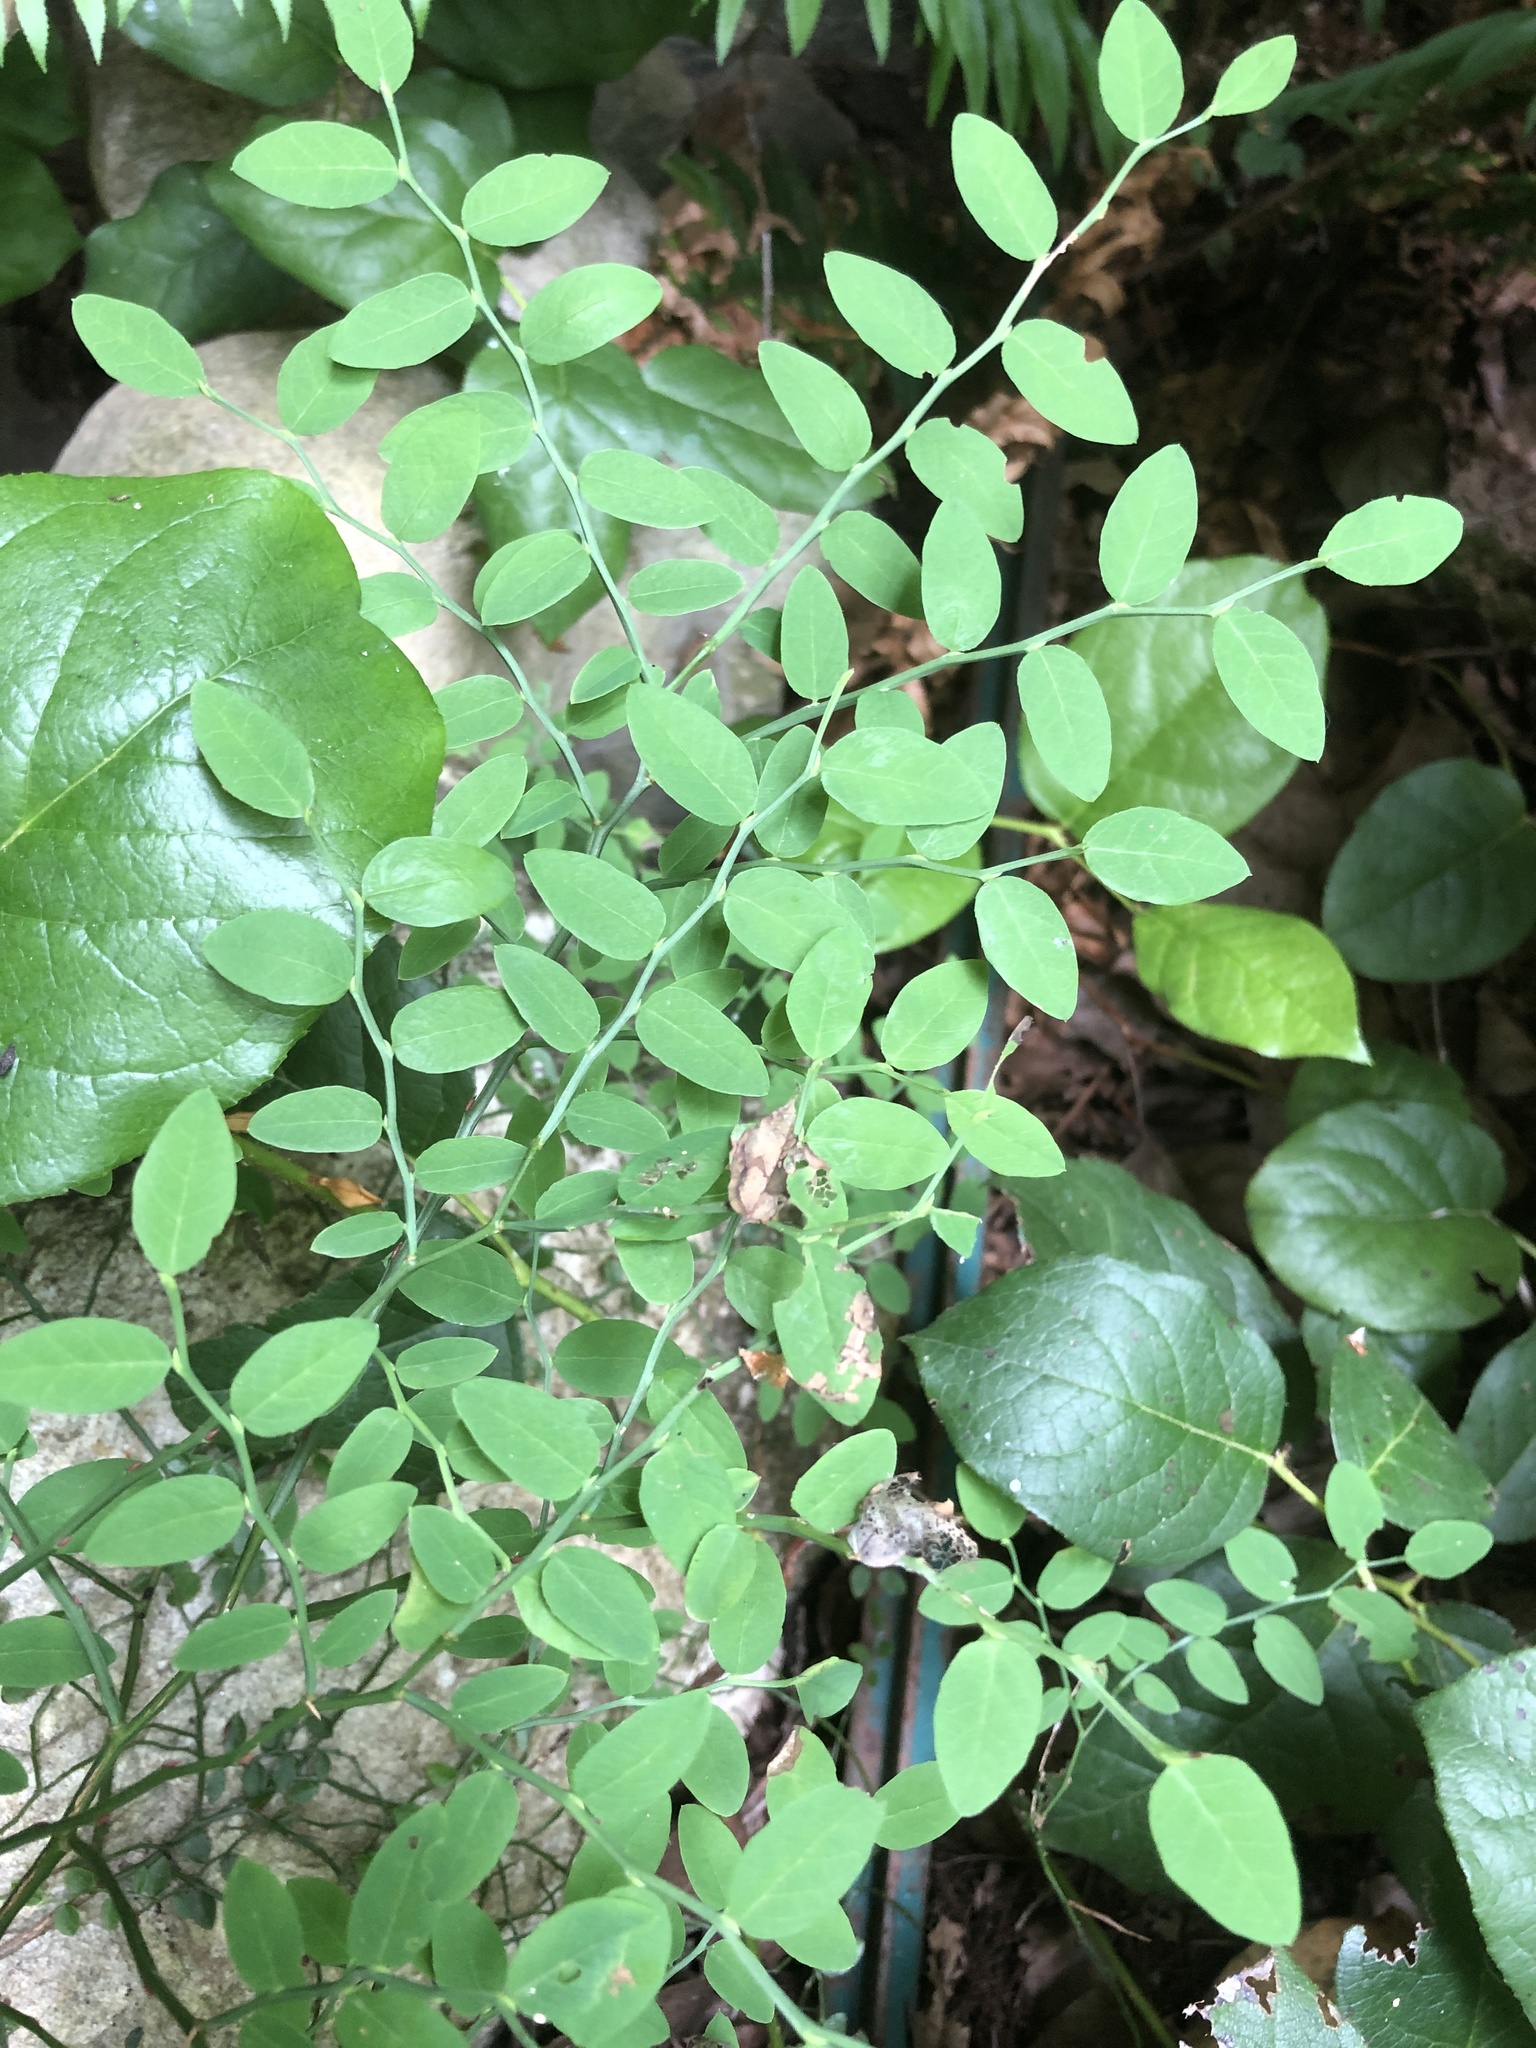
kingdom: Plantae
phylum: Tracheophyta
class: Magnoliopsida
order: Ericales
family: Ericaceae
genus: Vaccinium
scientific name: Vaccinium parvifolium
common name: Red-huckleberry
